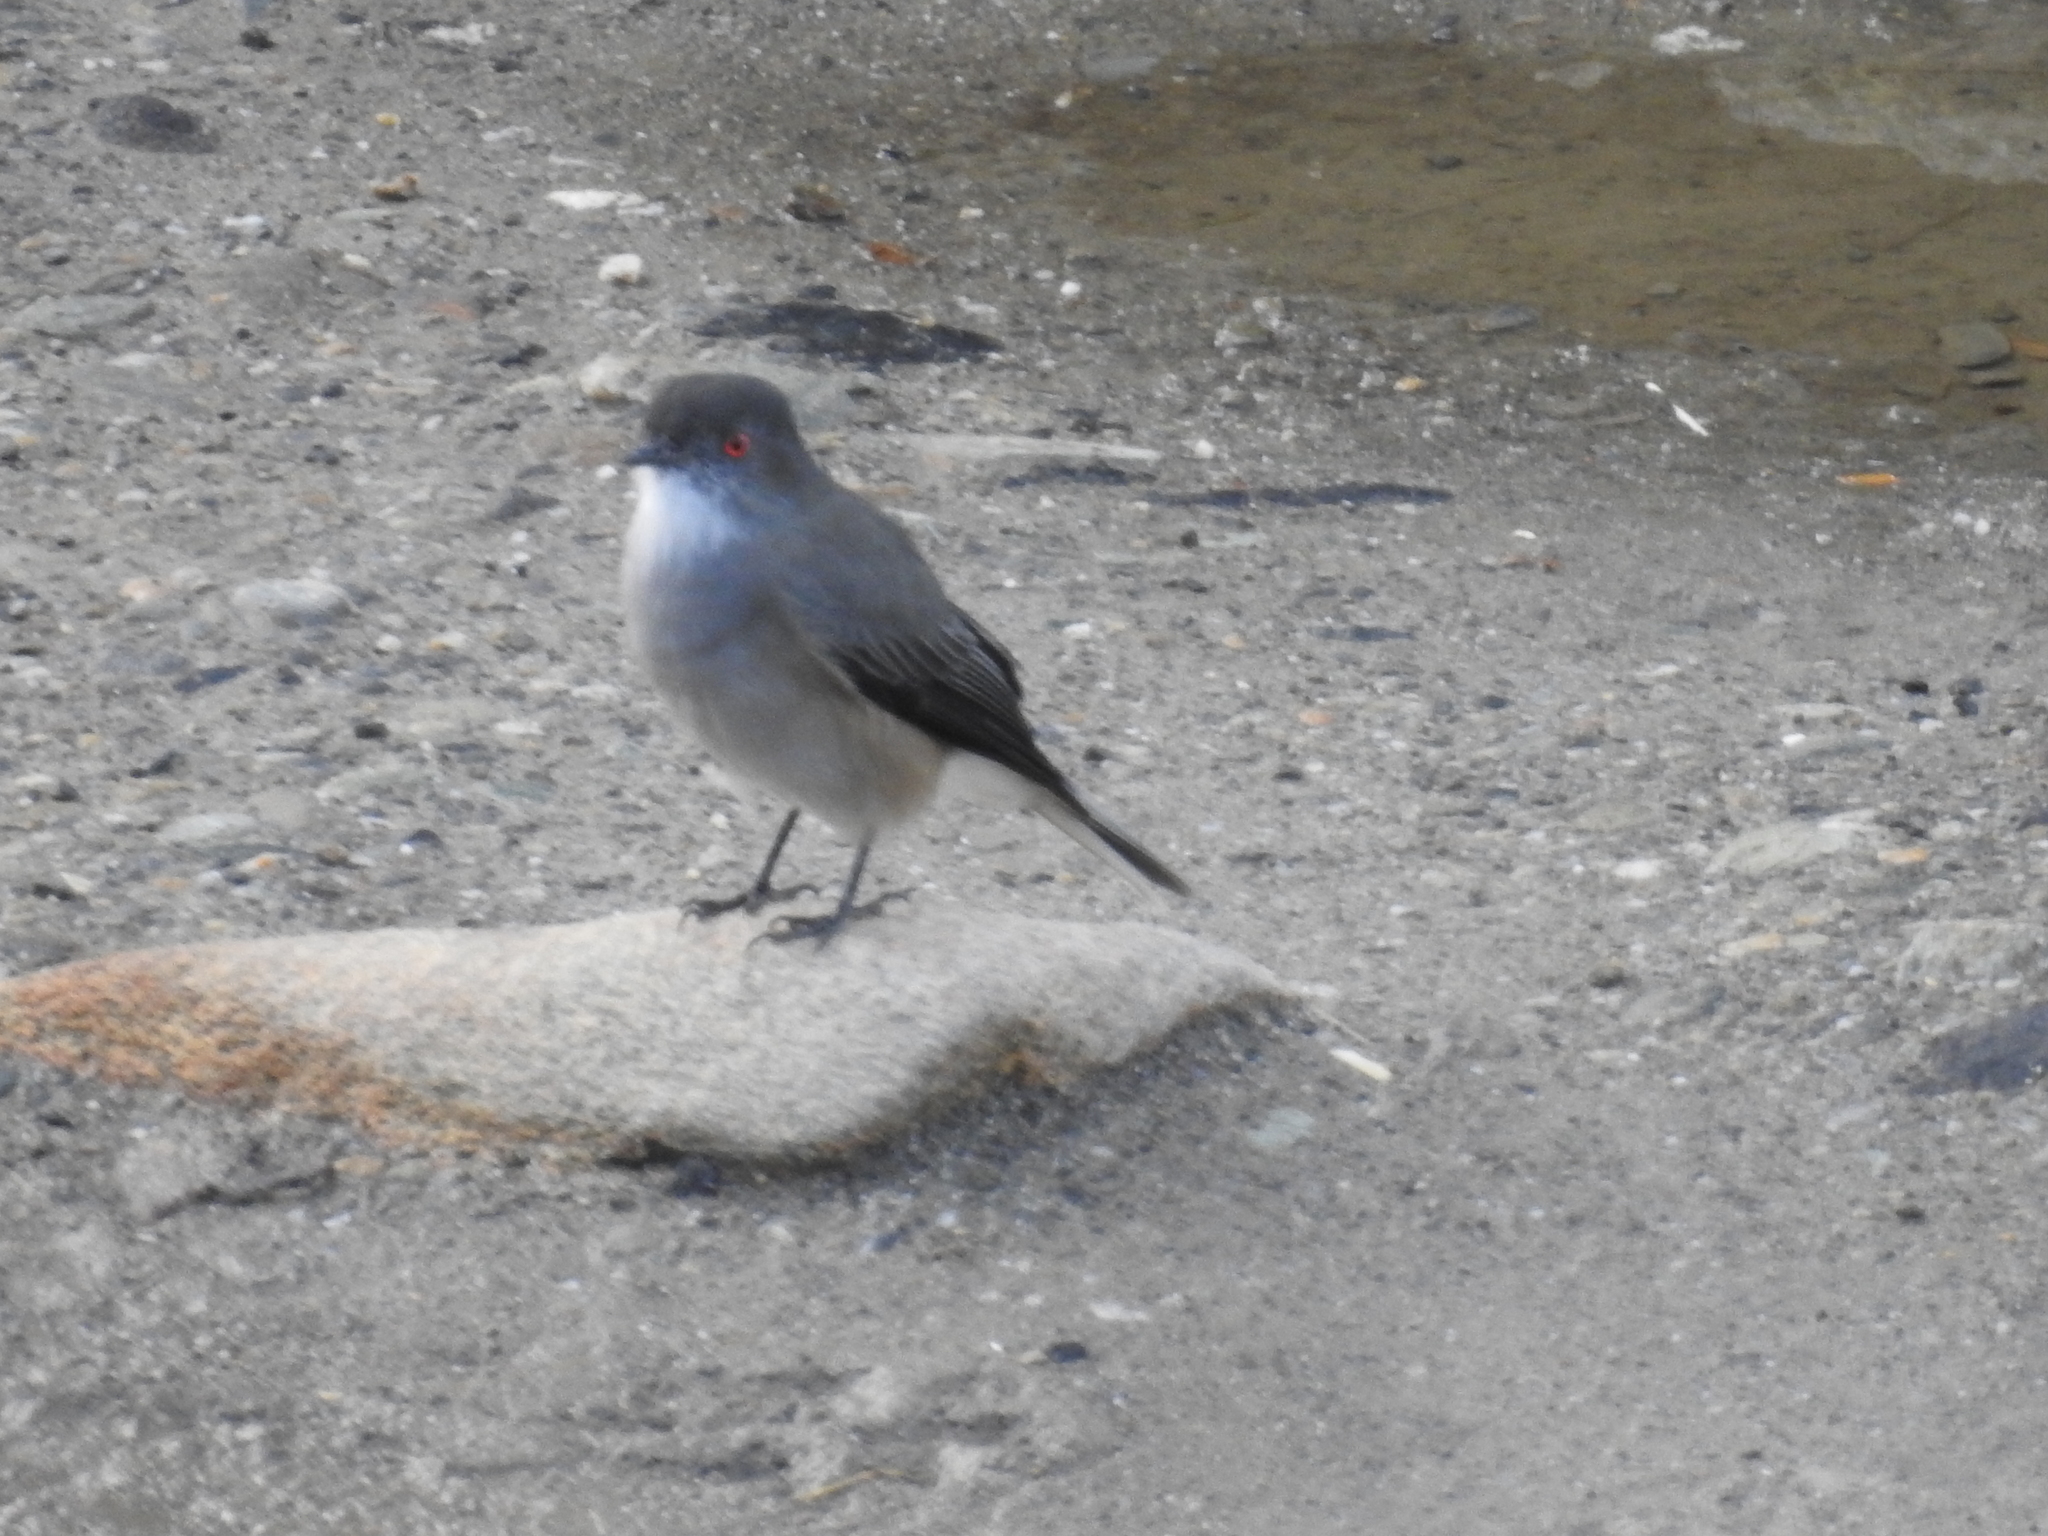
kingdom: Animalia
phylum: Chordata
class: Aves
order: Passeriformes
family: Tyrannidae
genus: Xolmis
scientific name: Xolmis pyrope
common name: Fire-eyed diucon
